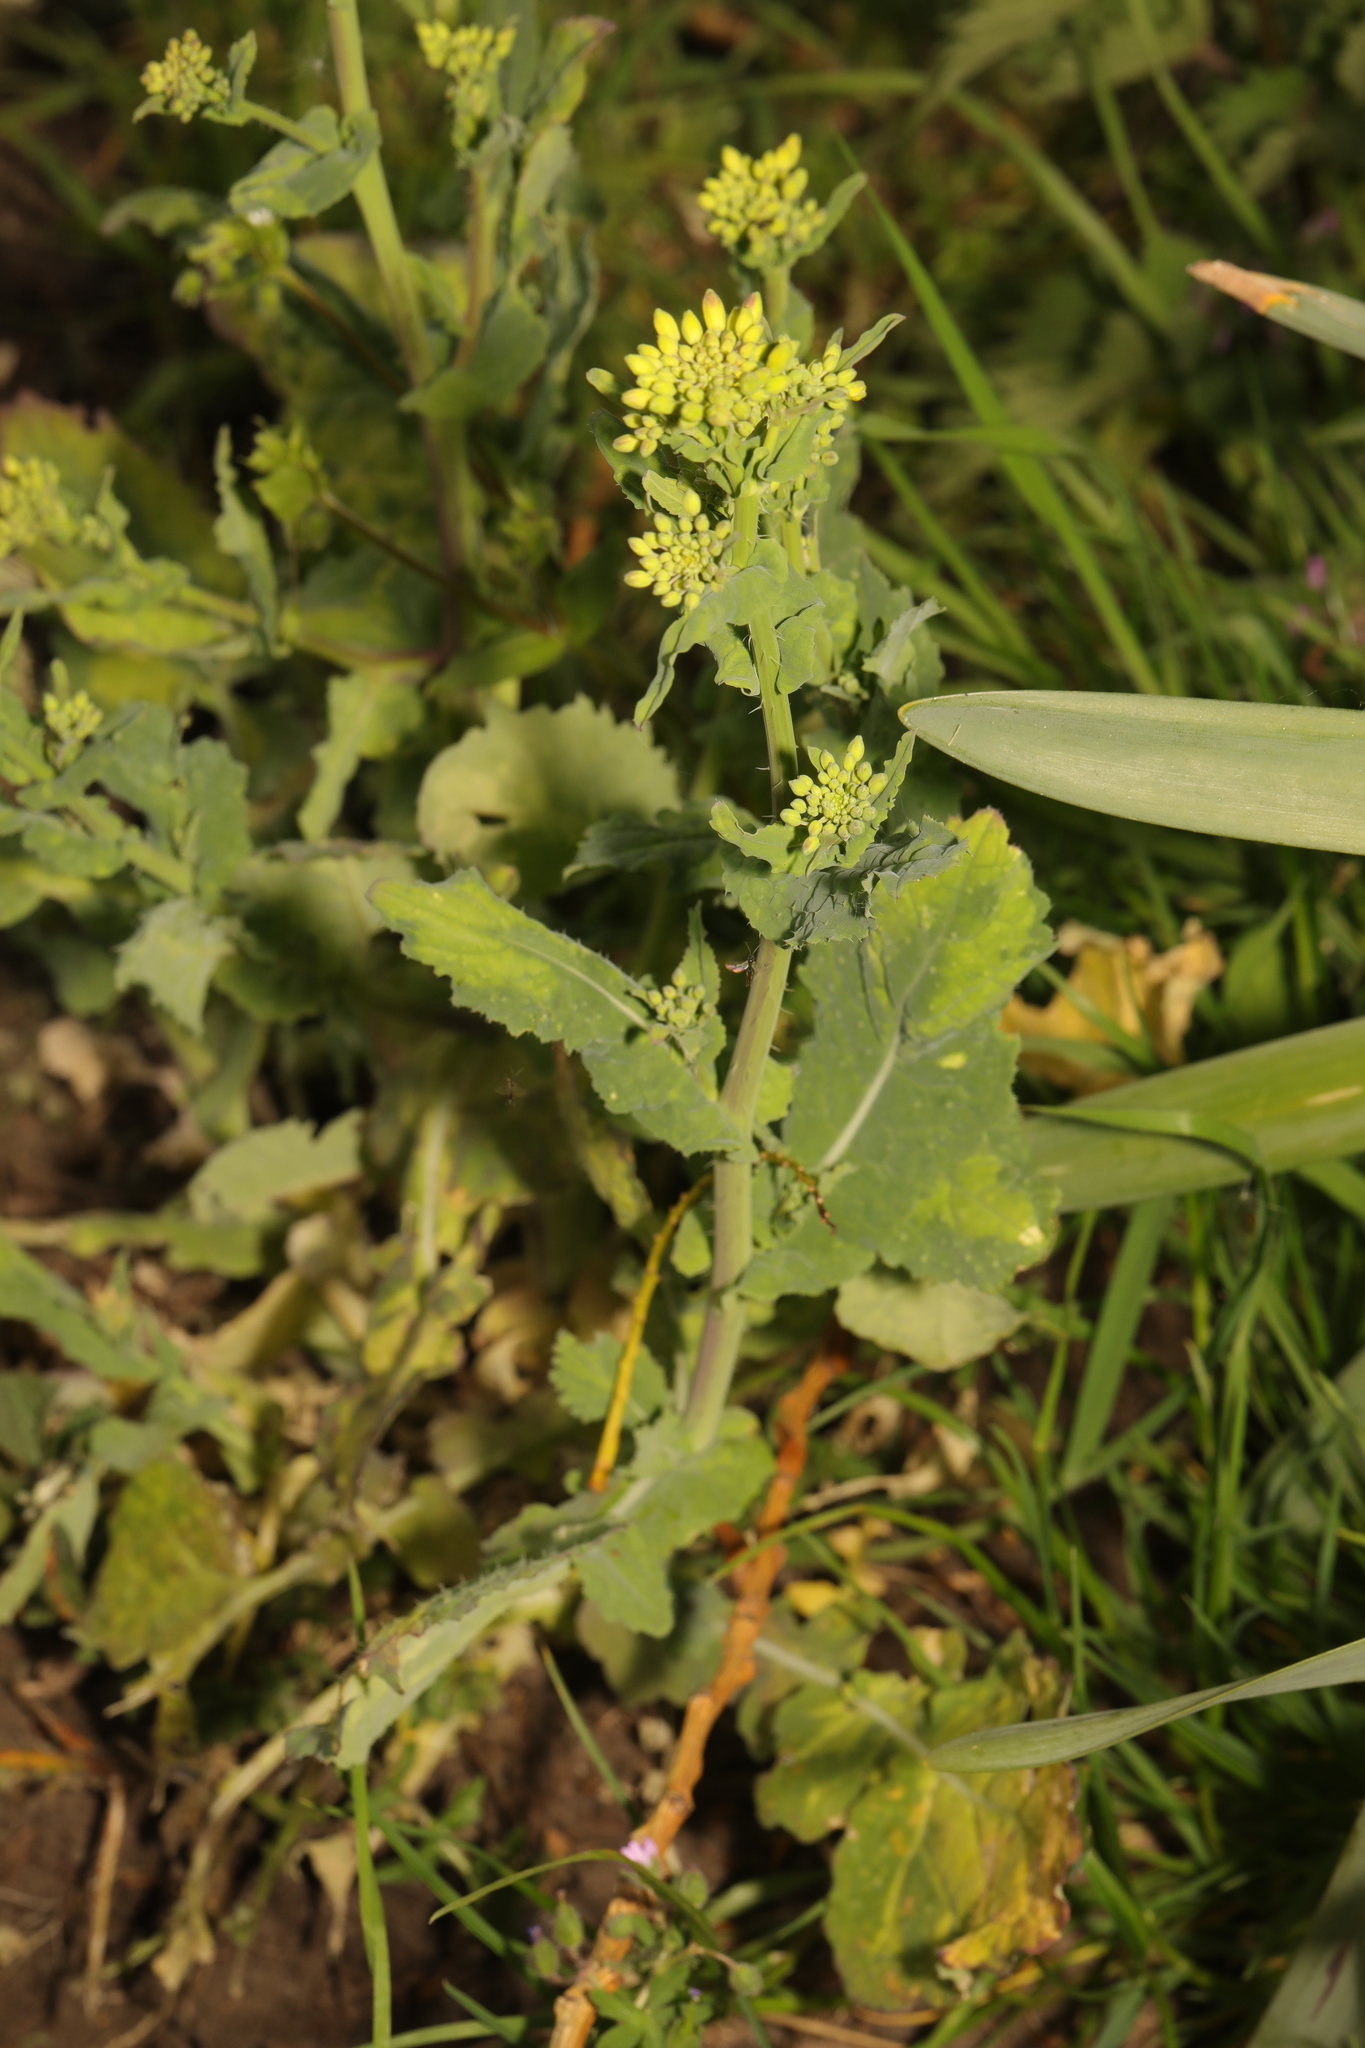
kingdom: Plantae
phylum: Tracheophyta
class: Magnoliopsida
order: Brassicales
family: Brassicaceae
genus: Brassica
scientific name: Brassica rapa
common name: Field mustard
